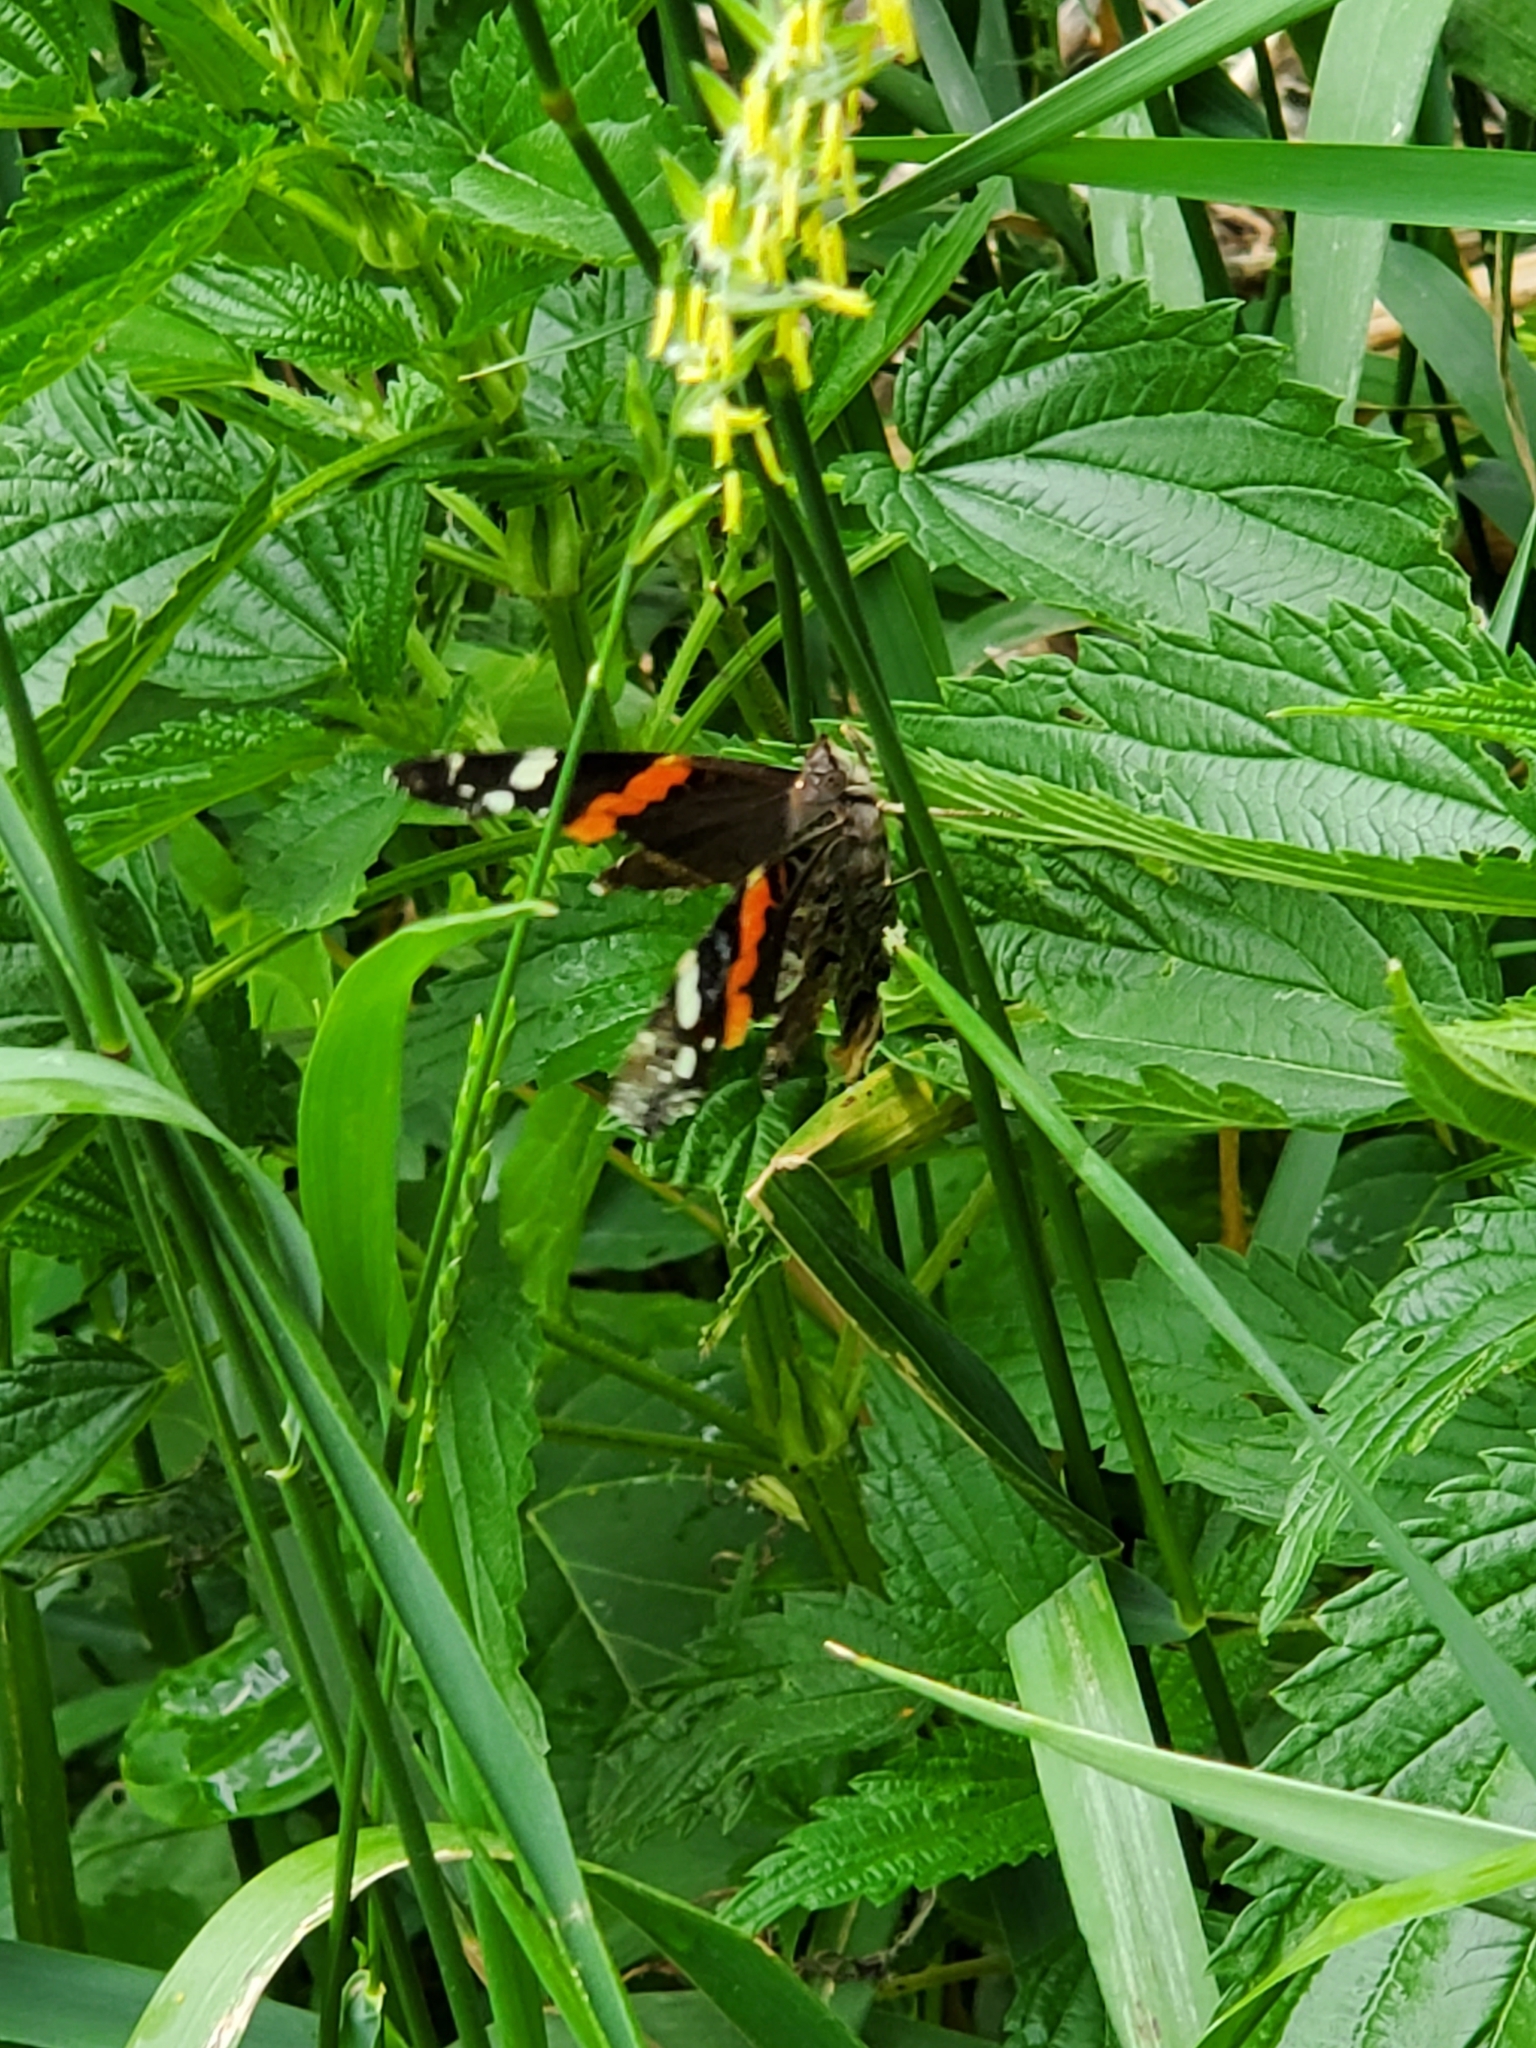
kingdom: Animalia
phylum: Arthropoda
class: Insecta
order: Lepidoptera
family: Nymphalidae
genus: Vanessa
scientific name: Vanessa atalanta
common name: Red admiral
